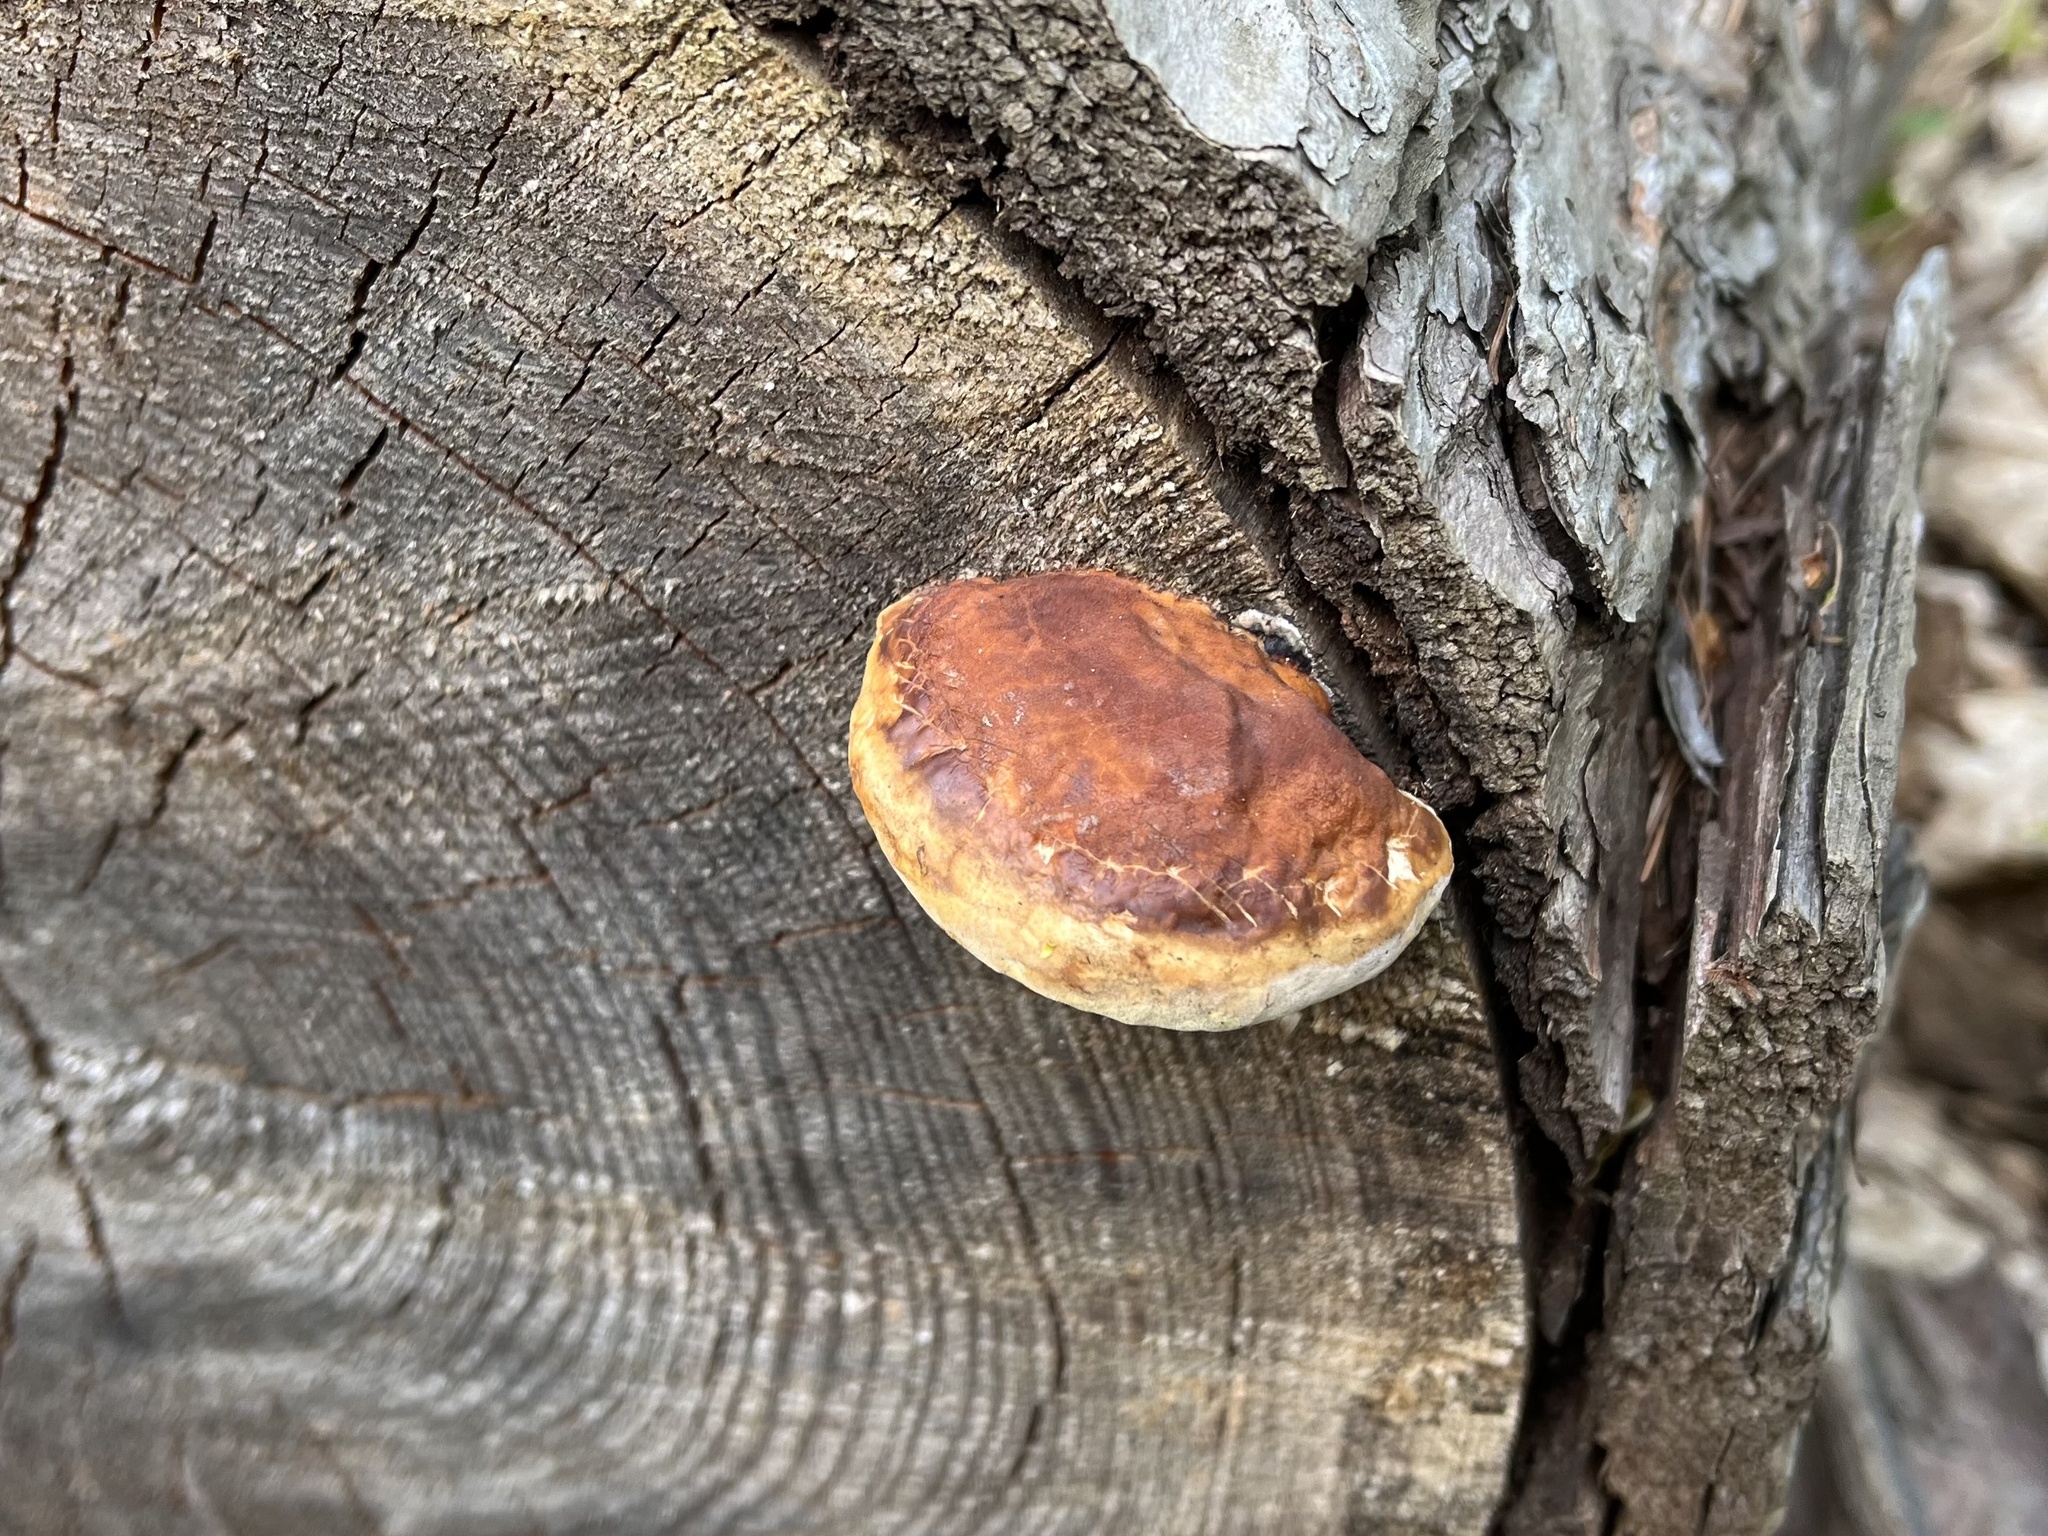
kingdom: Fungi
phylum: Basidiomycota
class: Agaricomycetes
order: Polyporales
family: Fomitopsidaceae
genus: Fomitopsis
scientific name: Fomitopsis pinicola
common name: Red-belted bracket
